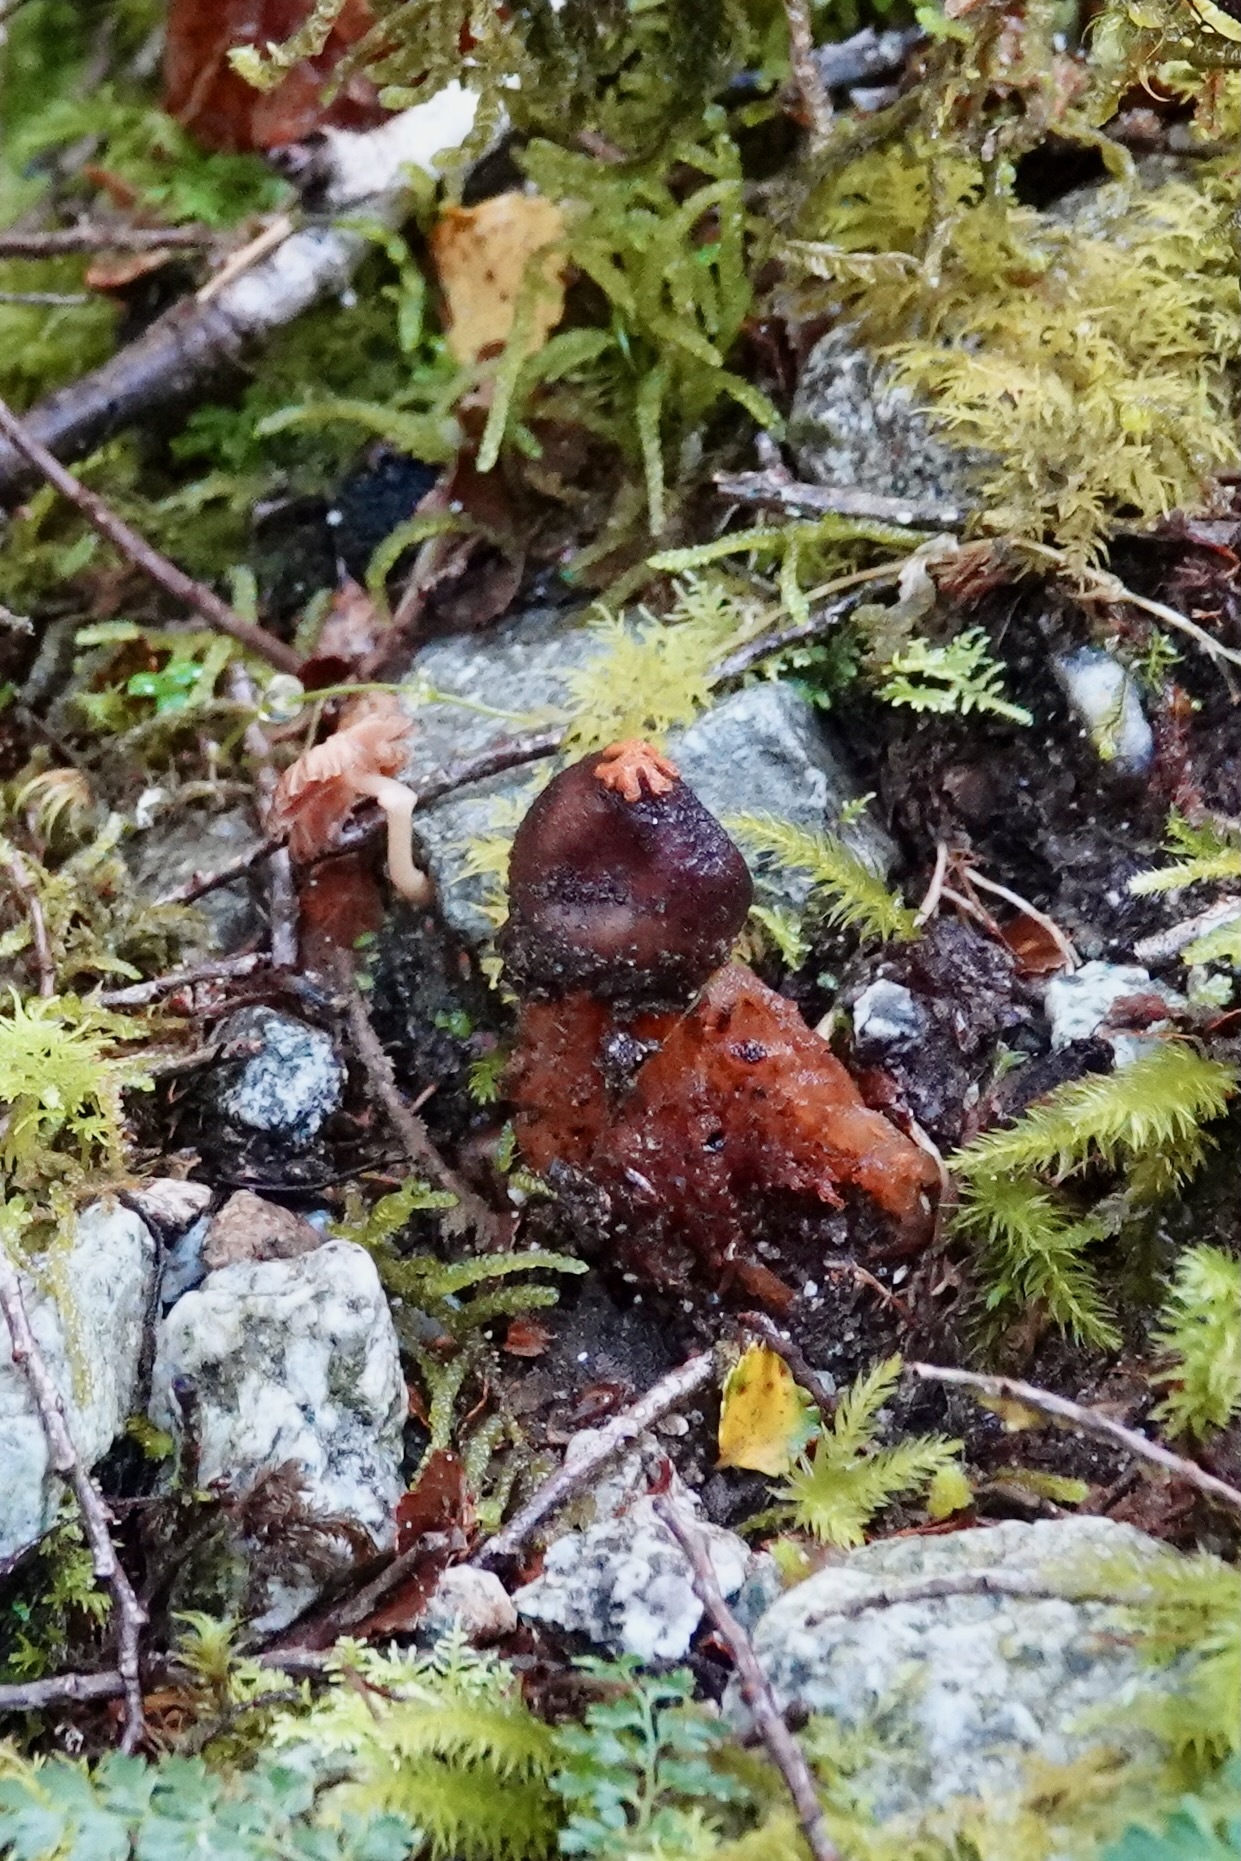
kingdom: Fungi
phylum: Basidiomycota
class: Agaricomycetes
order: Boletales
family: Calostomataceae
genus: Calostoma
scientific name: Calostoma rodwayi
